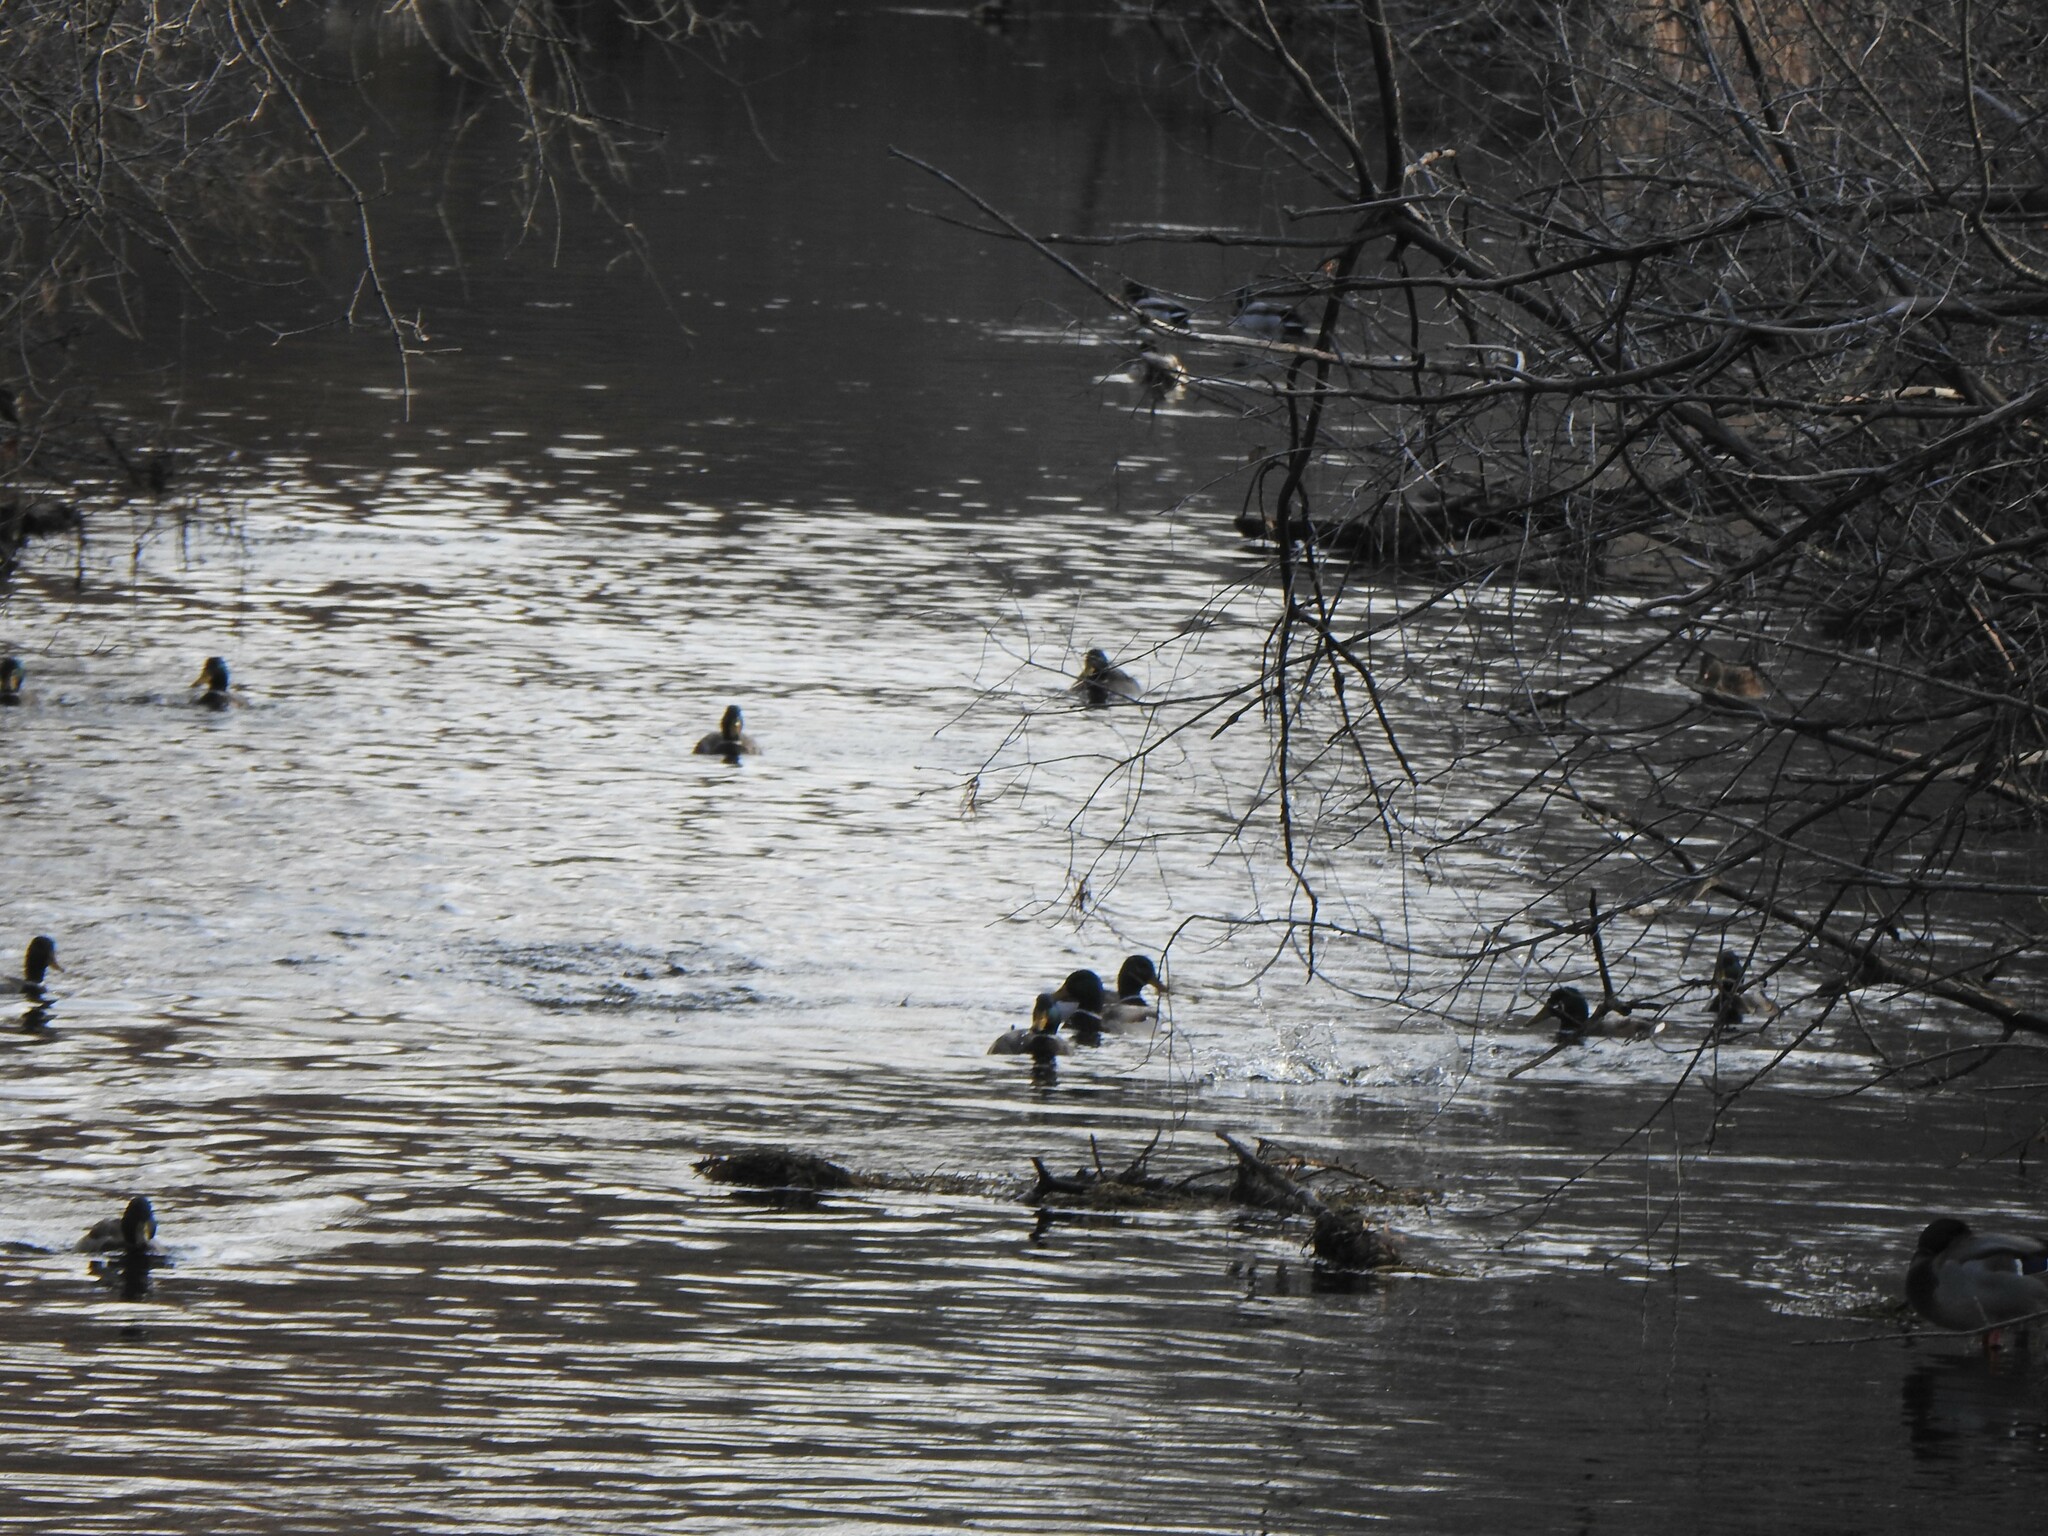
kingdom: Animalia
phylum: Chordata
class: Aves
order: Anseriformes
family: Anatidae
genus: Anas
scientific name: Anas platyrhynchos
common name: Mallard
